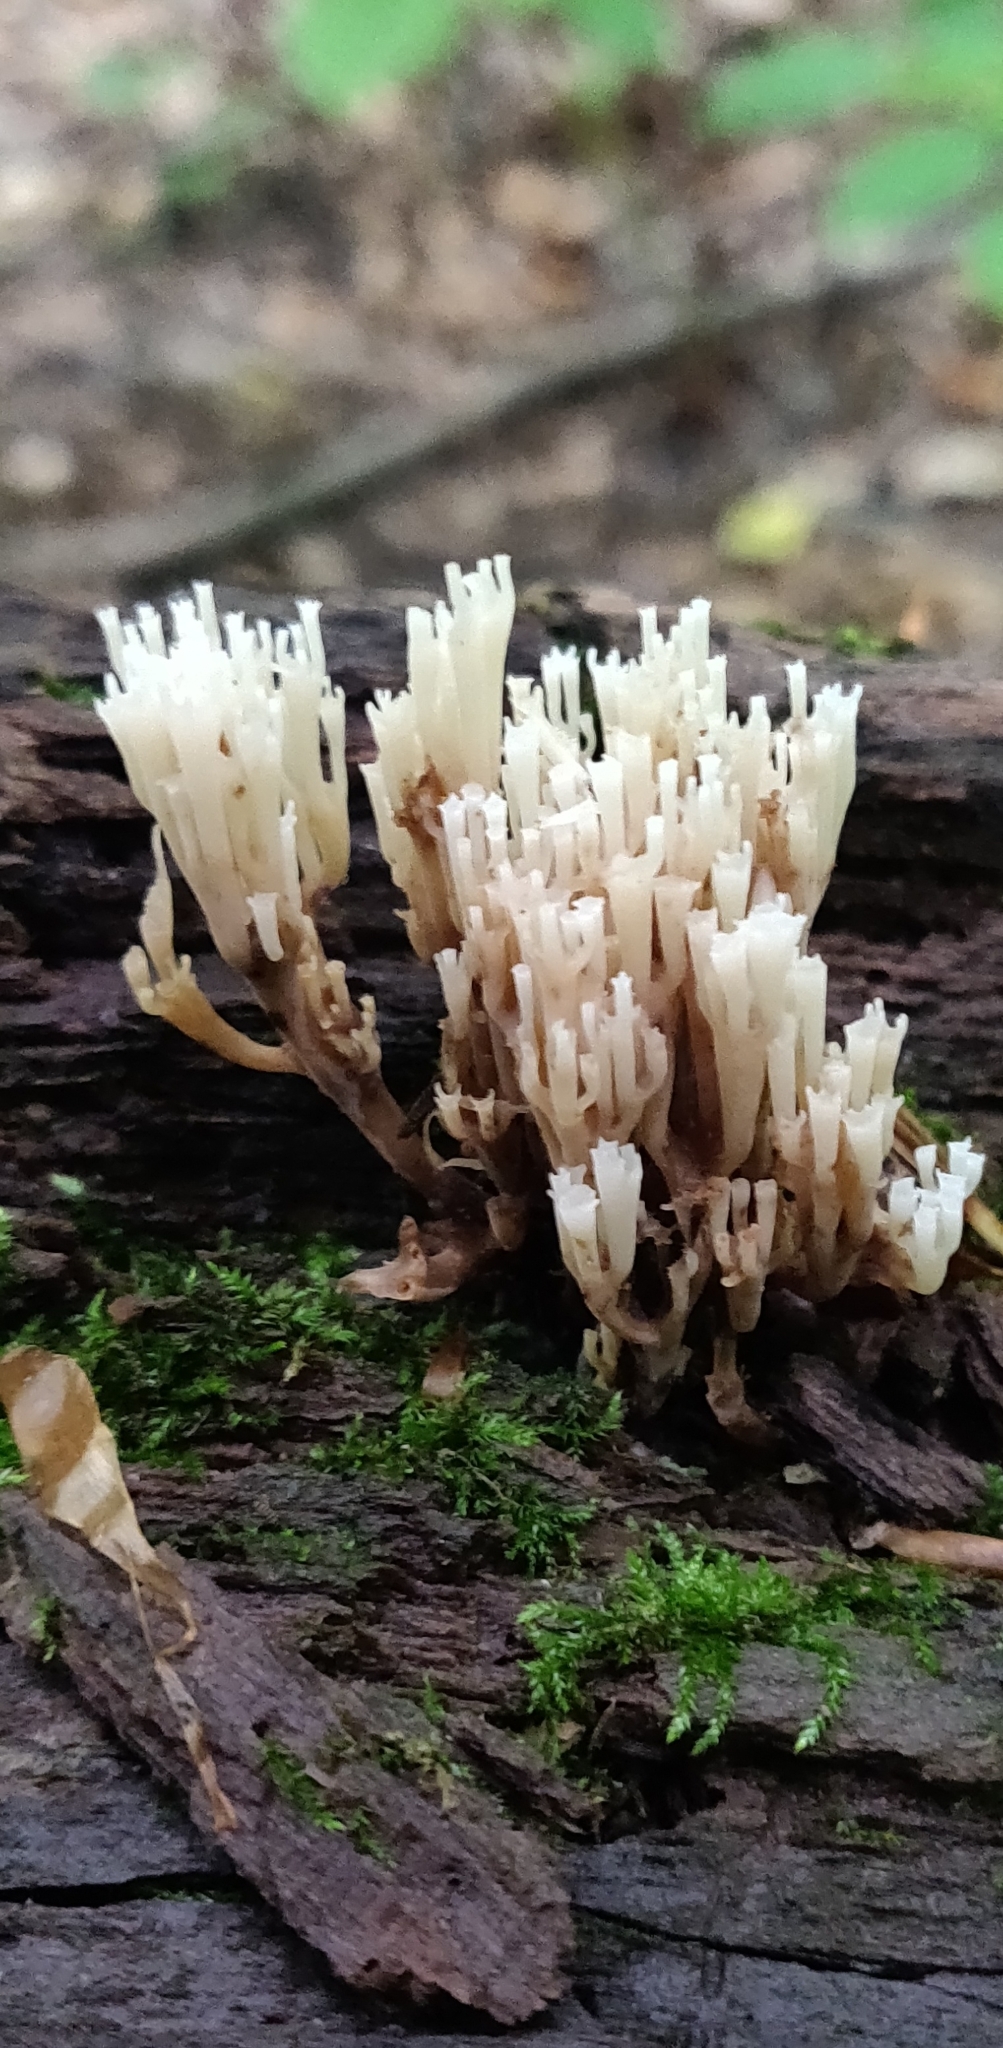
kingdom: Fungi
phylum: Basidiomycota
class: Agaricomycetes
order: Russulales
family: Auriscalpiaceae
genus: Artomyces
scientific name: Artomyces pyxidatus
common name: Crown-tipped coral fungus
